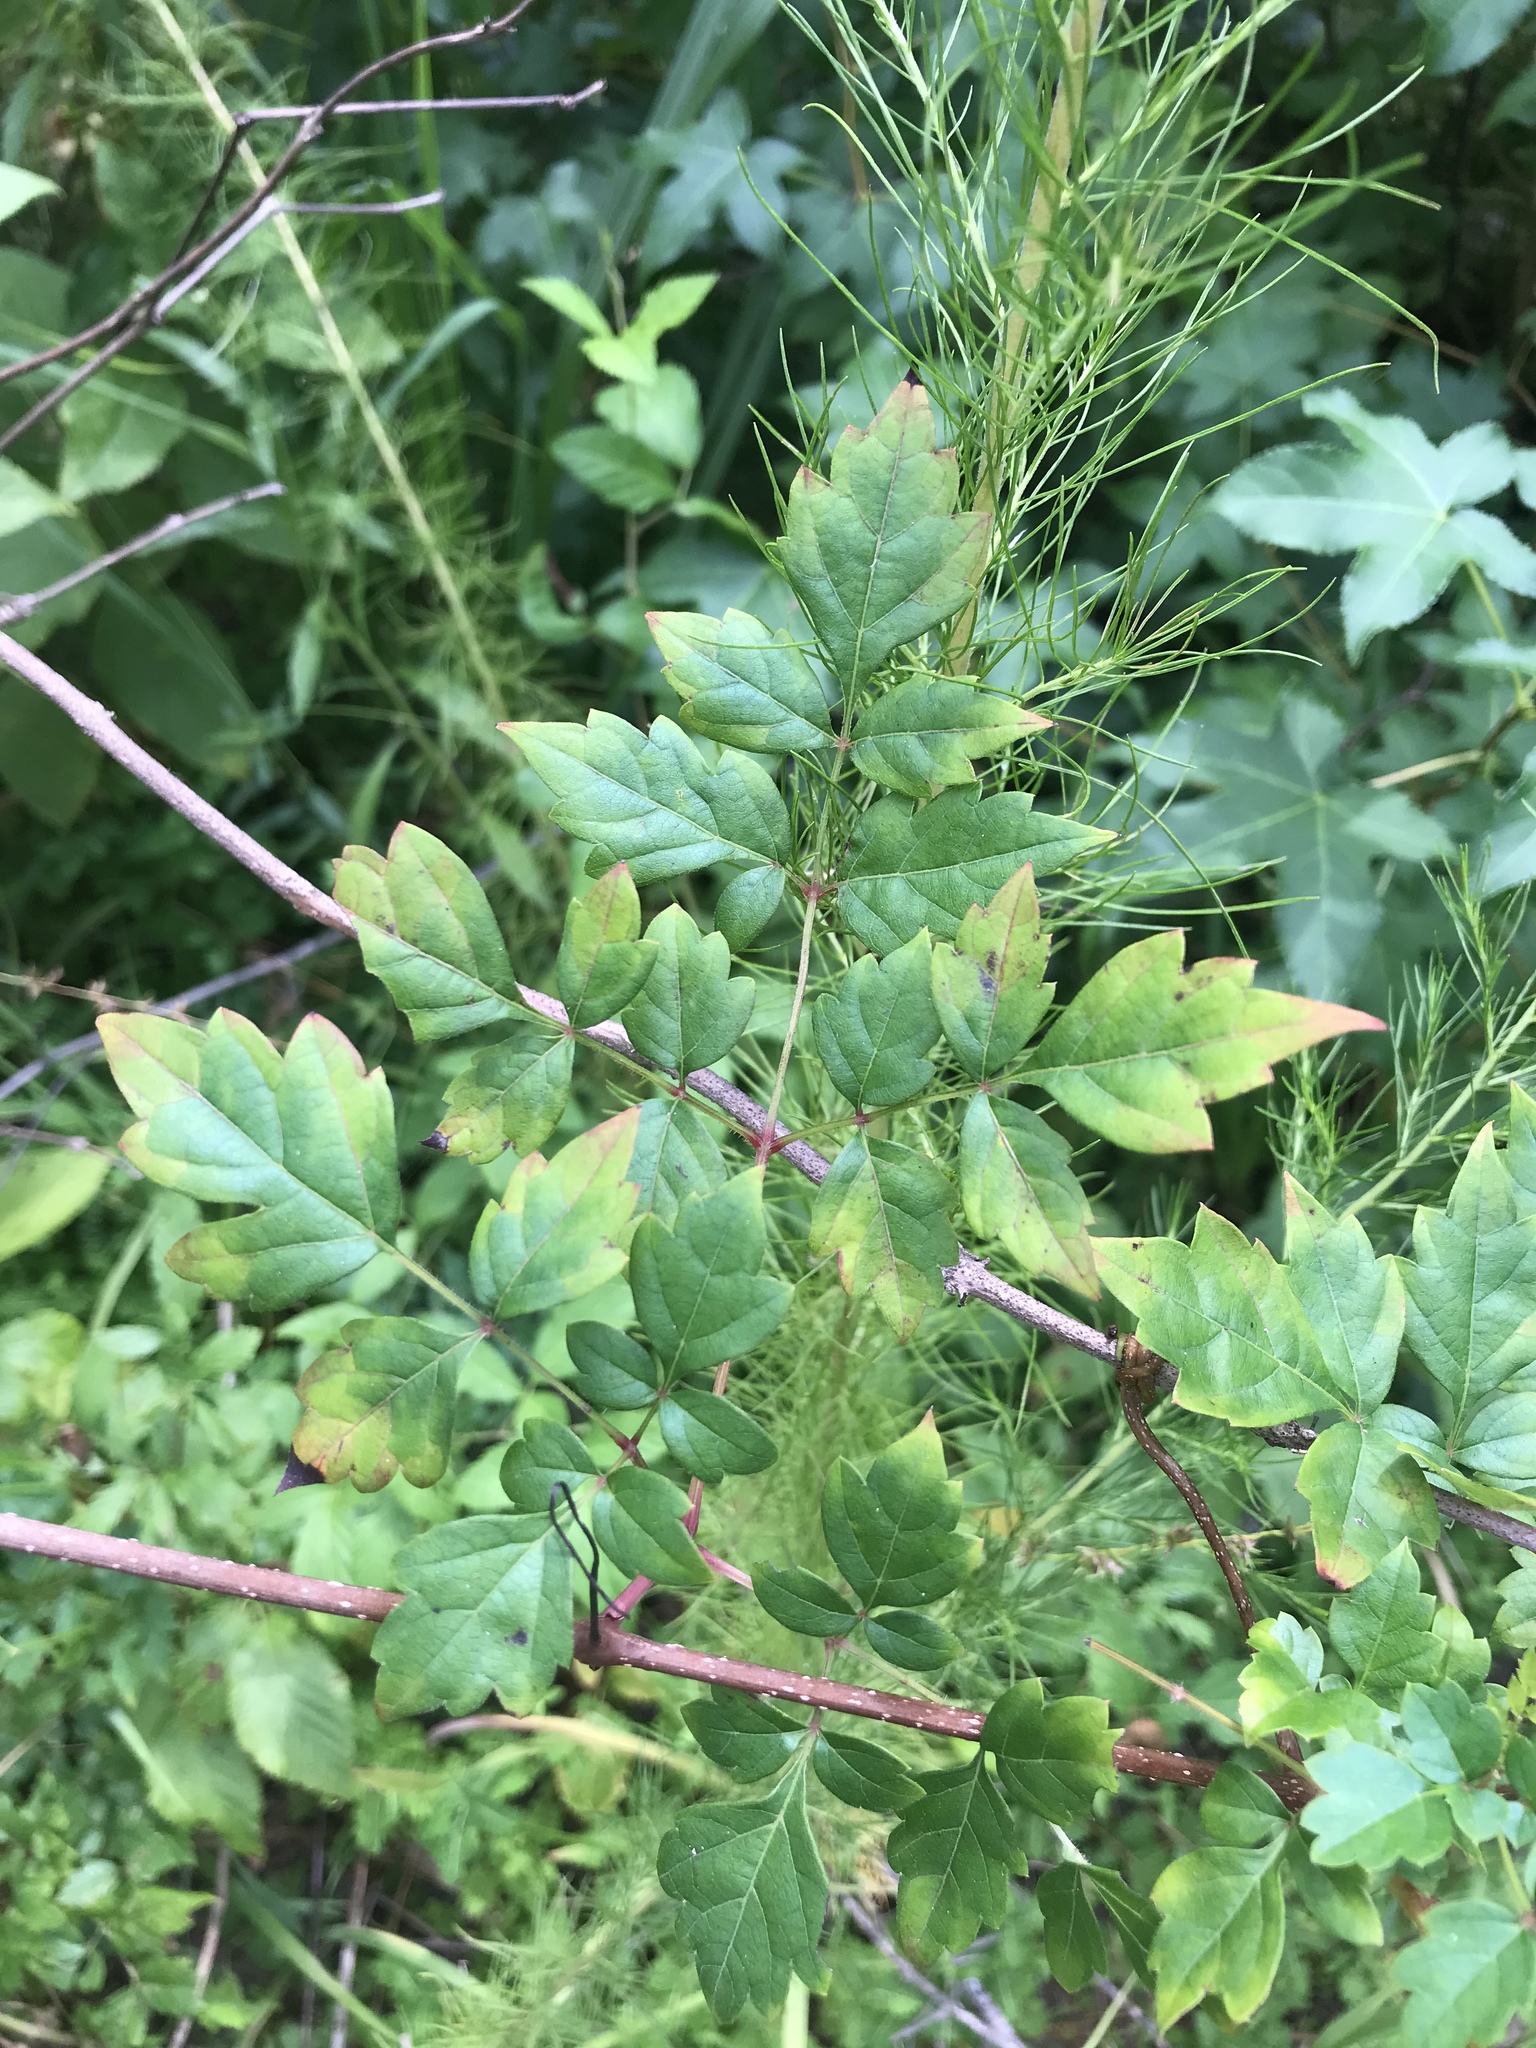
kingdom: Plantae
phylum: Tracheophyta
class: Magnoliopsida
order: Vitales
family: Vitaceae
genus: Nekemias
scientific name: Nekemias arborea
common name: Peppervine
